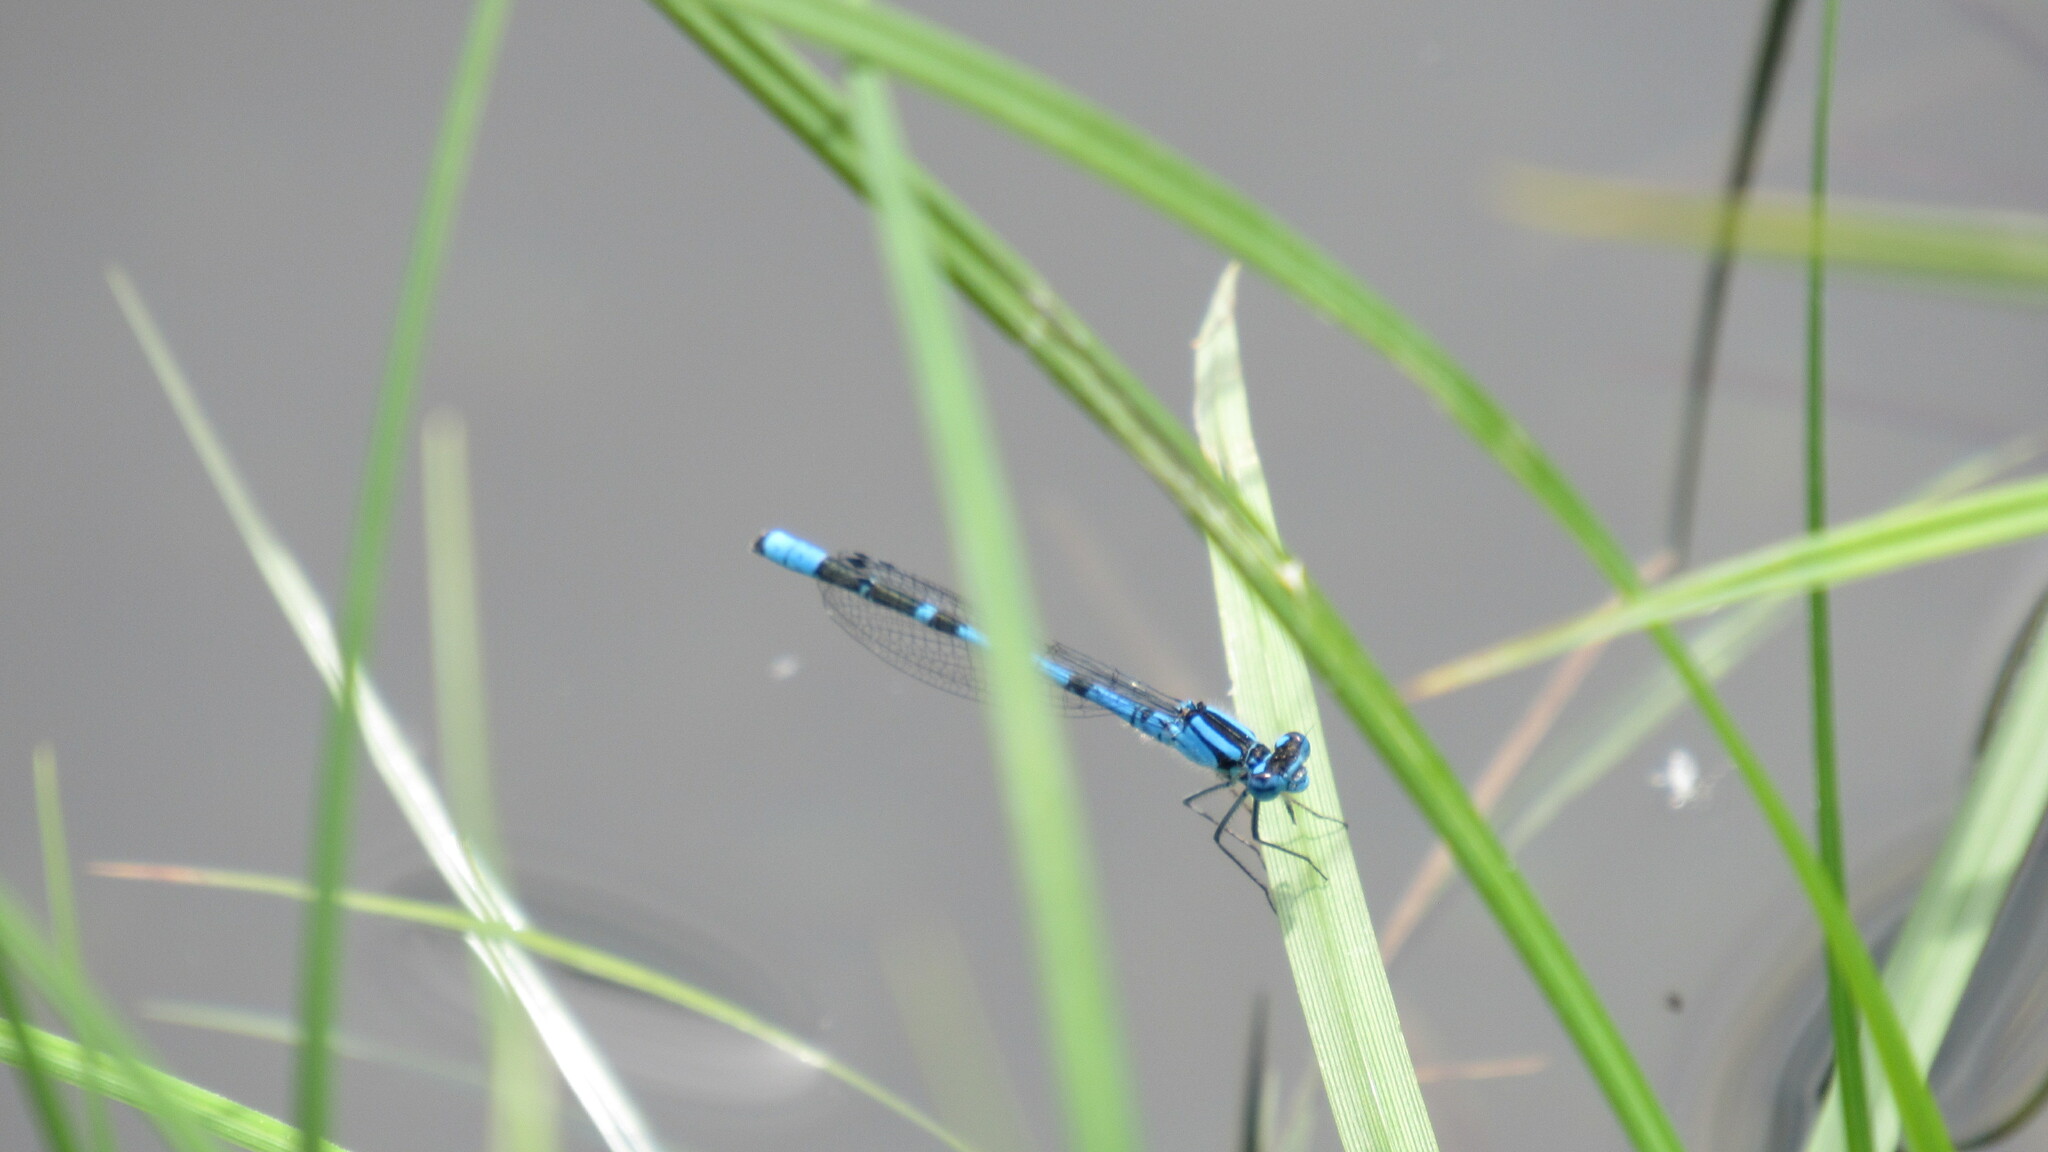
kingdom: Animalia
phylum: Arthropoda
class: Insecta
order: Odonata
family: Coenagrionidae
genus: Enallagma
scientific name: Enallagma cyathigerum
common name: Common blue damselfly
